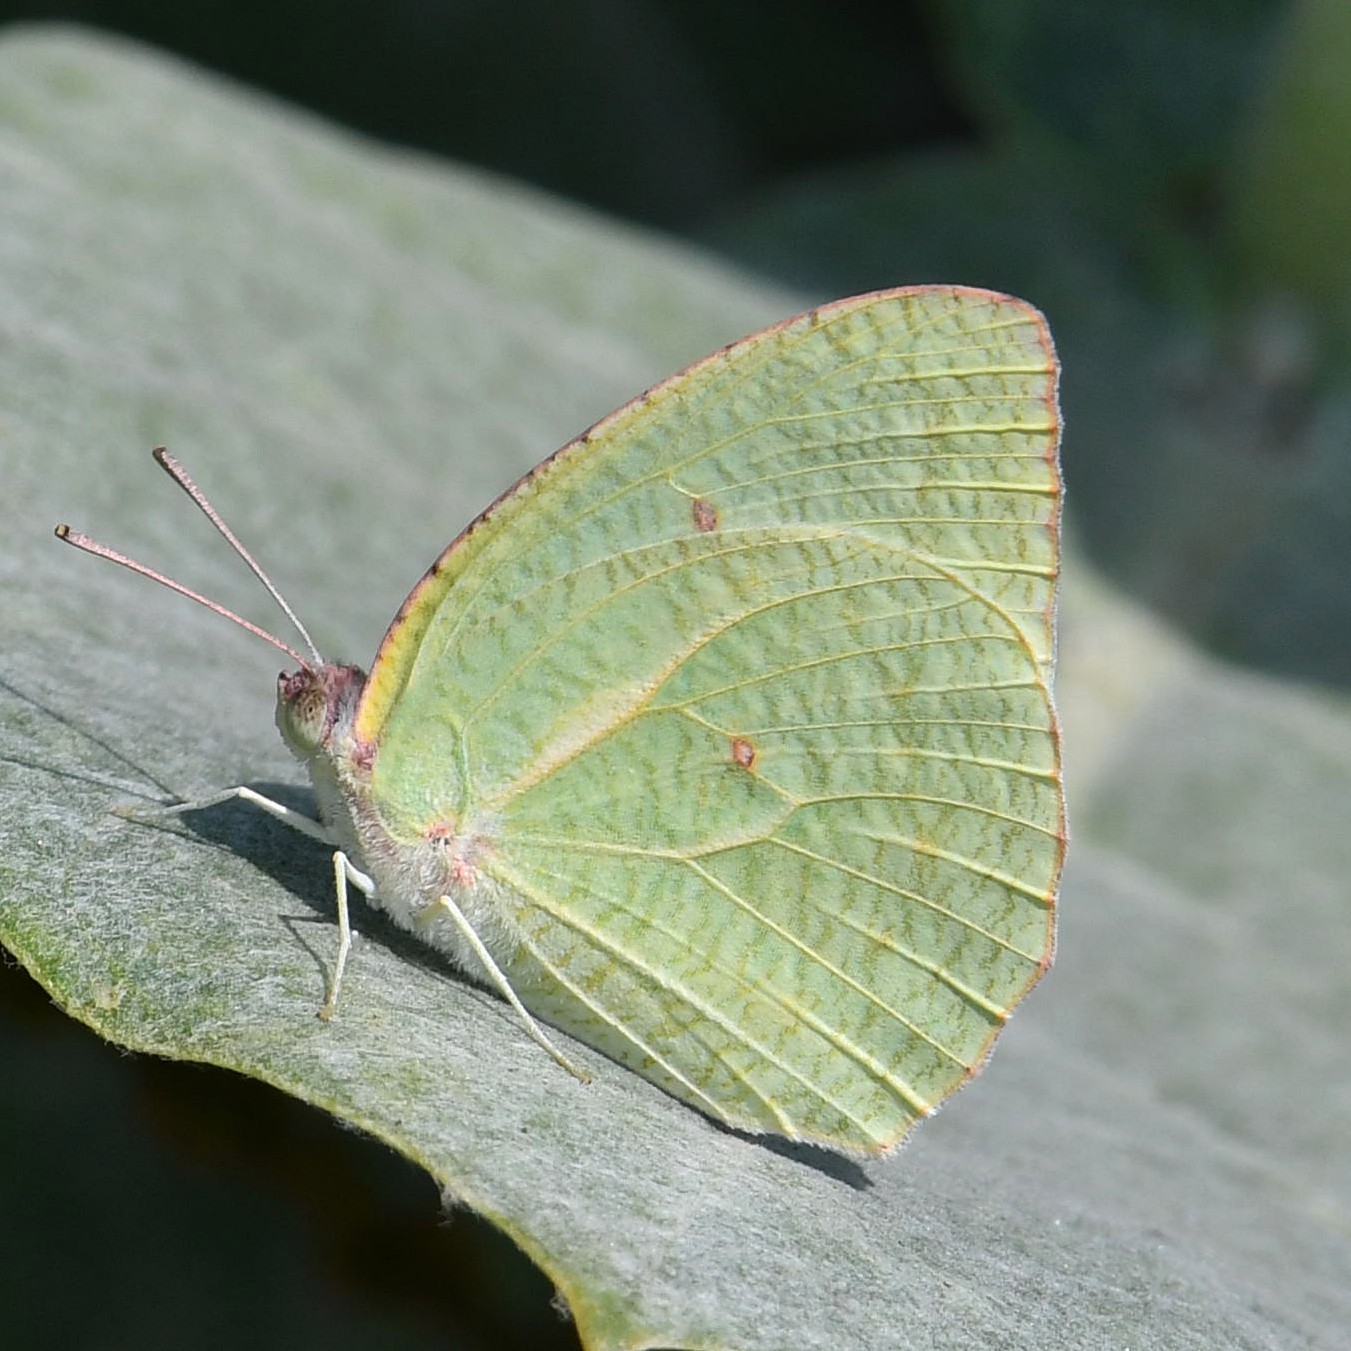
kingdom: Animalia
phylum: Arthropoda
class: Insecta
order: Lepidoptera
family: Pieridae
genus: Catopsilia
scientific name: Catopsilia pyranthe
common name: Mottled emigrant
